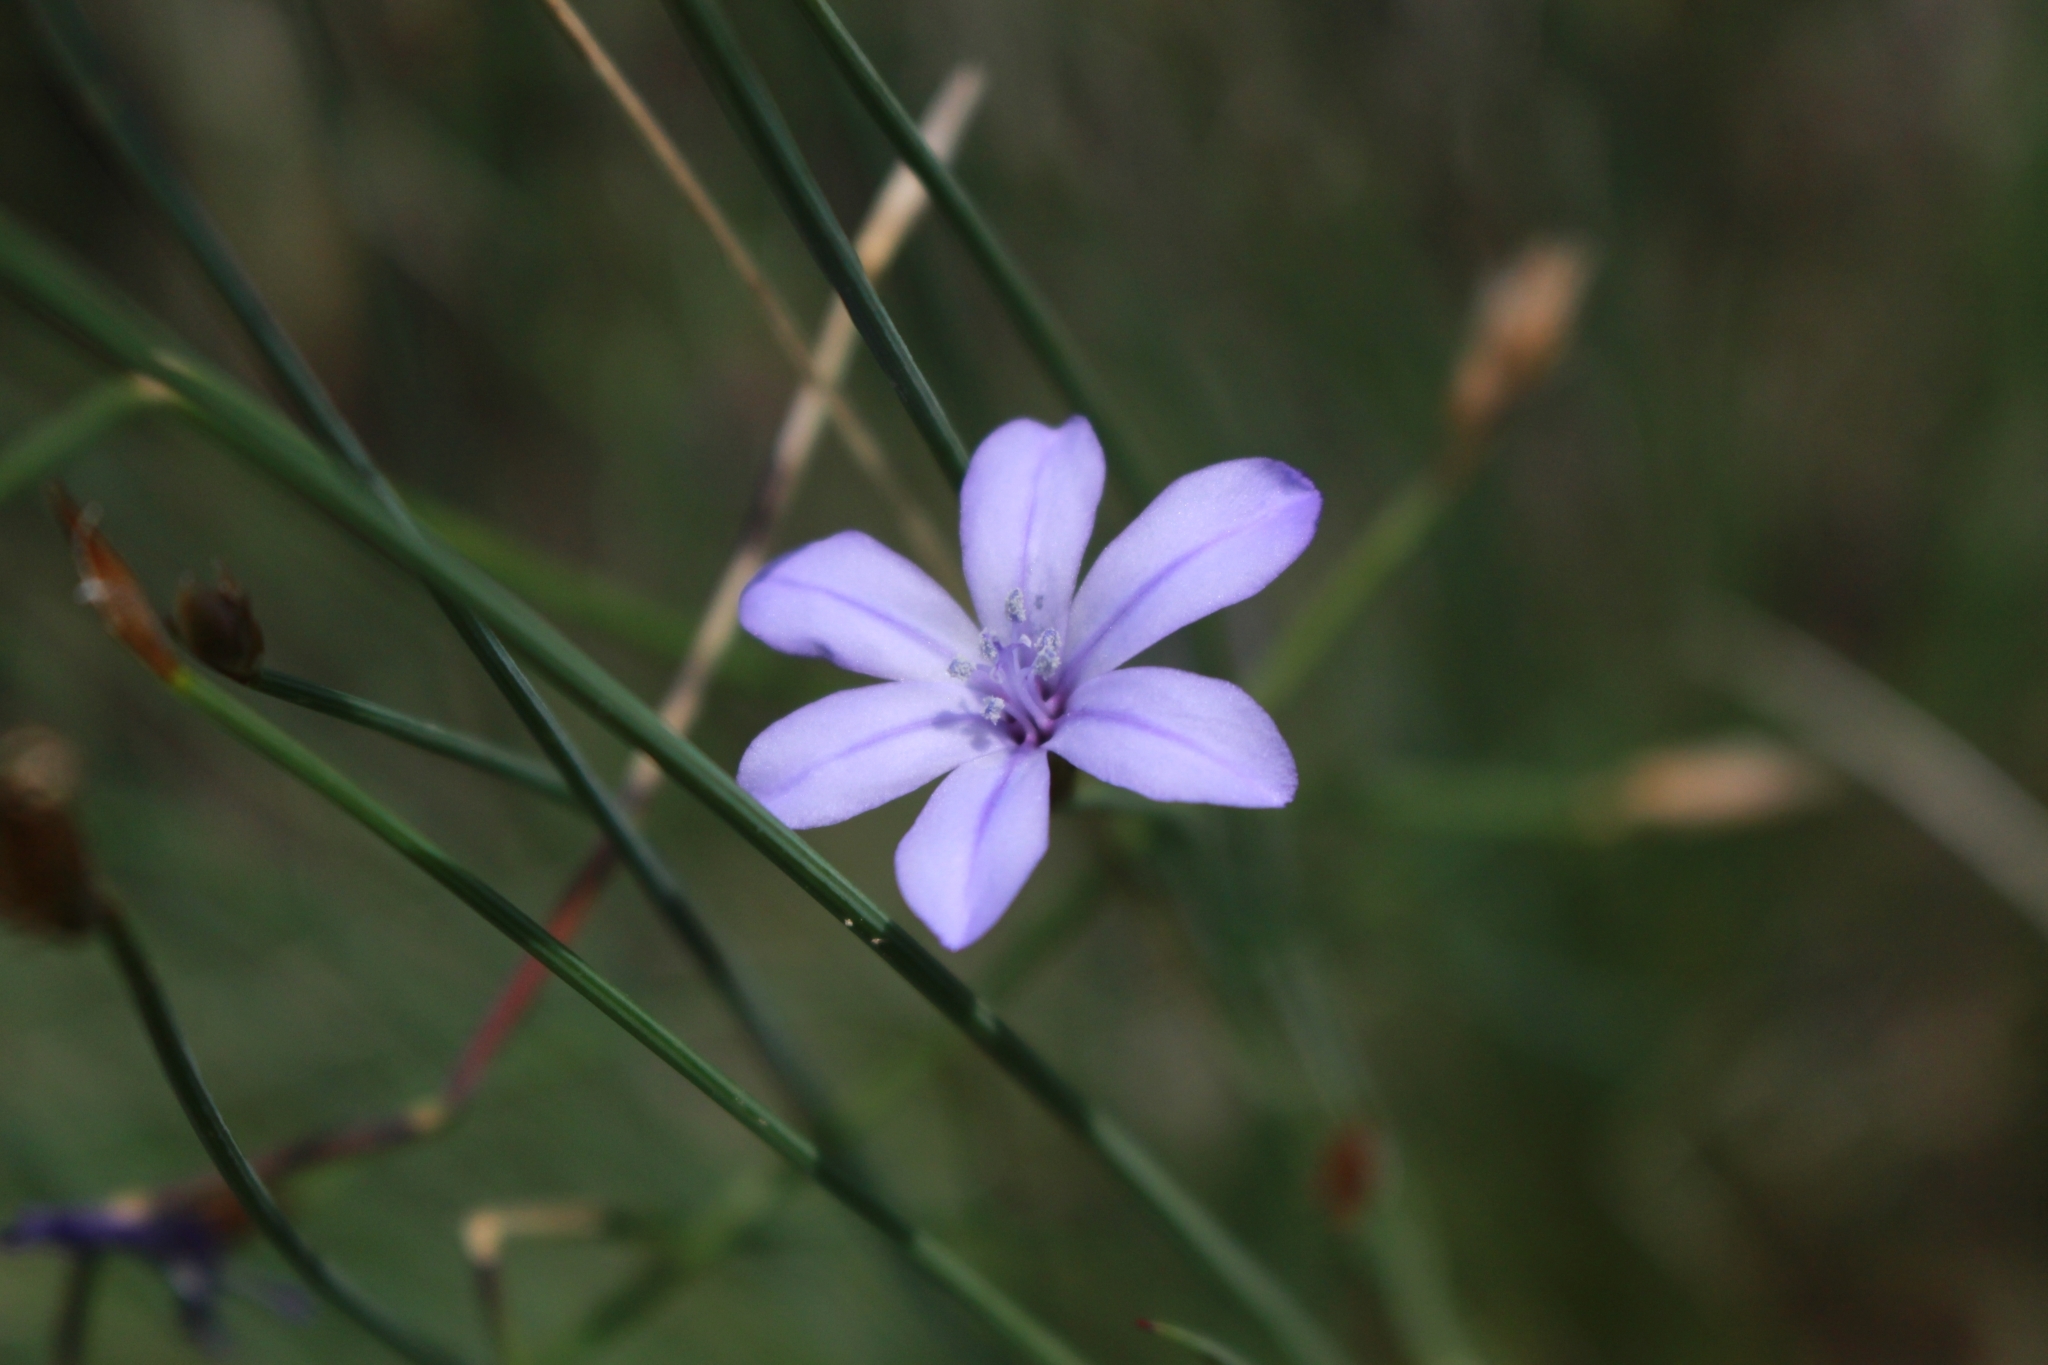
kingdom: Plantae
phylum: Tracheophyta
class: Liliopsida
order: Asparagales
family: Asparagaceae
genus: Aphyllanthes
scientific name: Aphyllanthes monspeliensis
